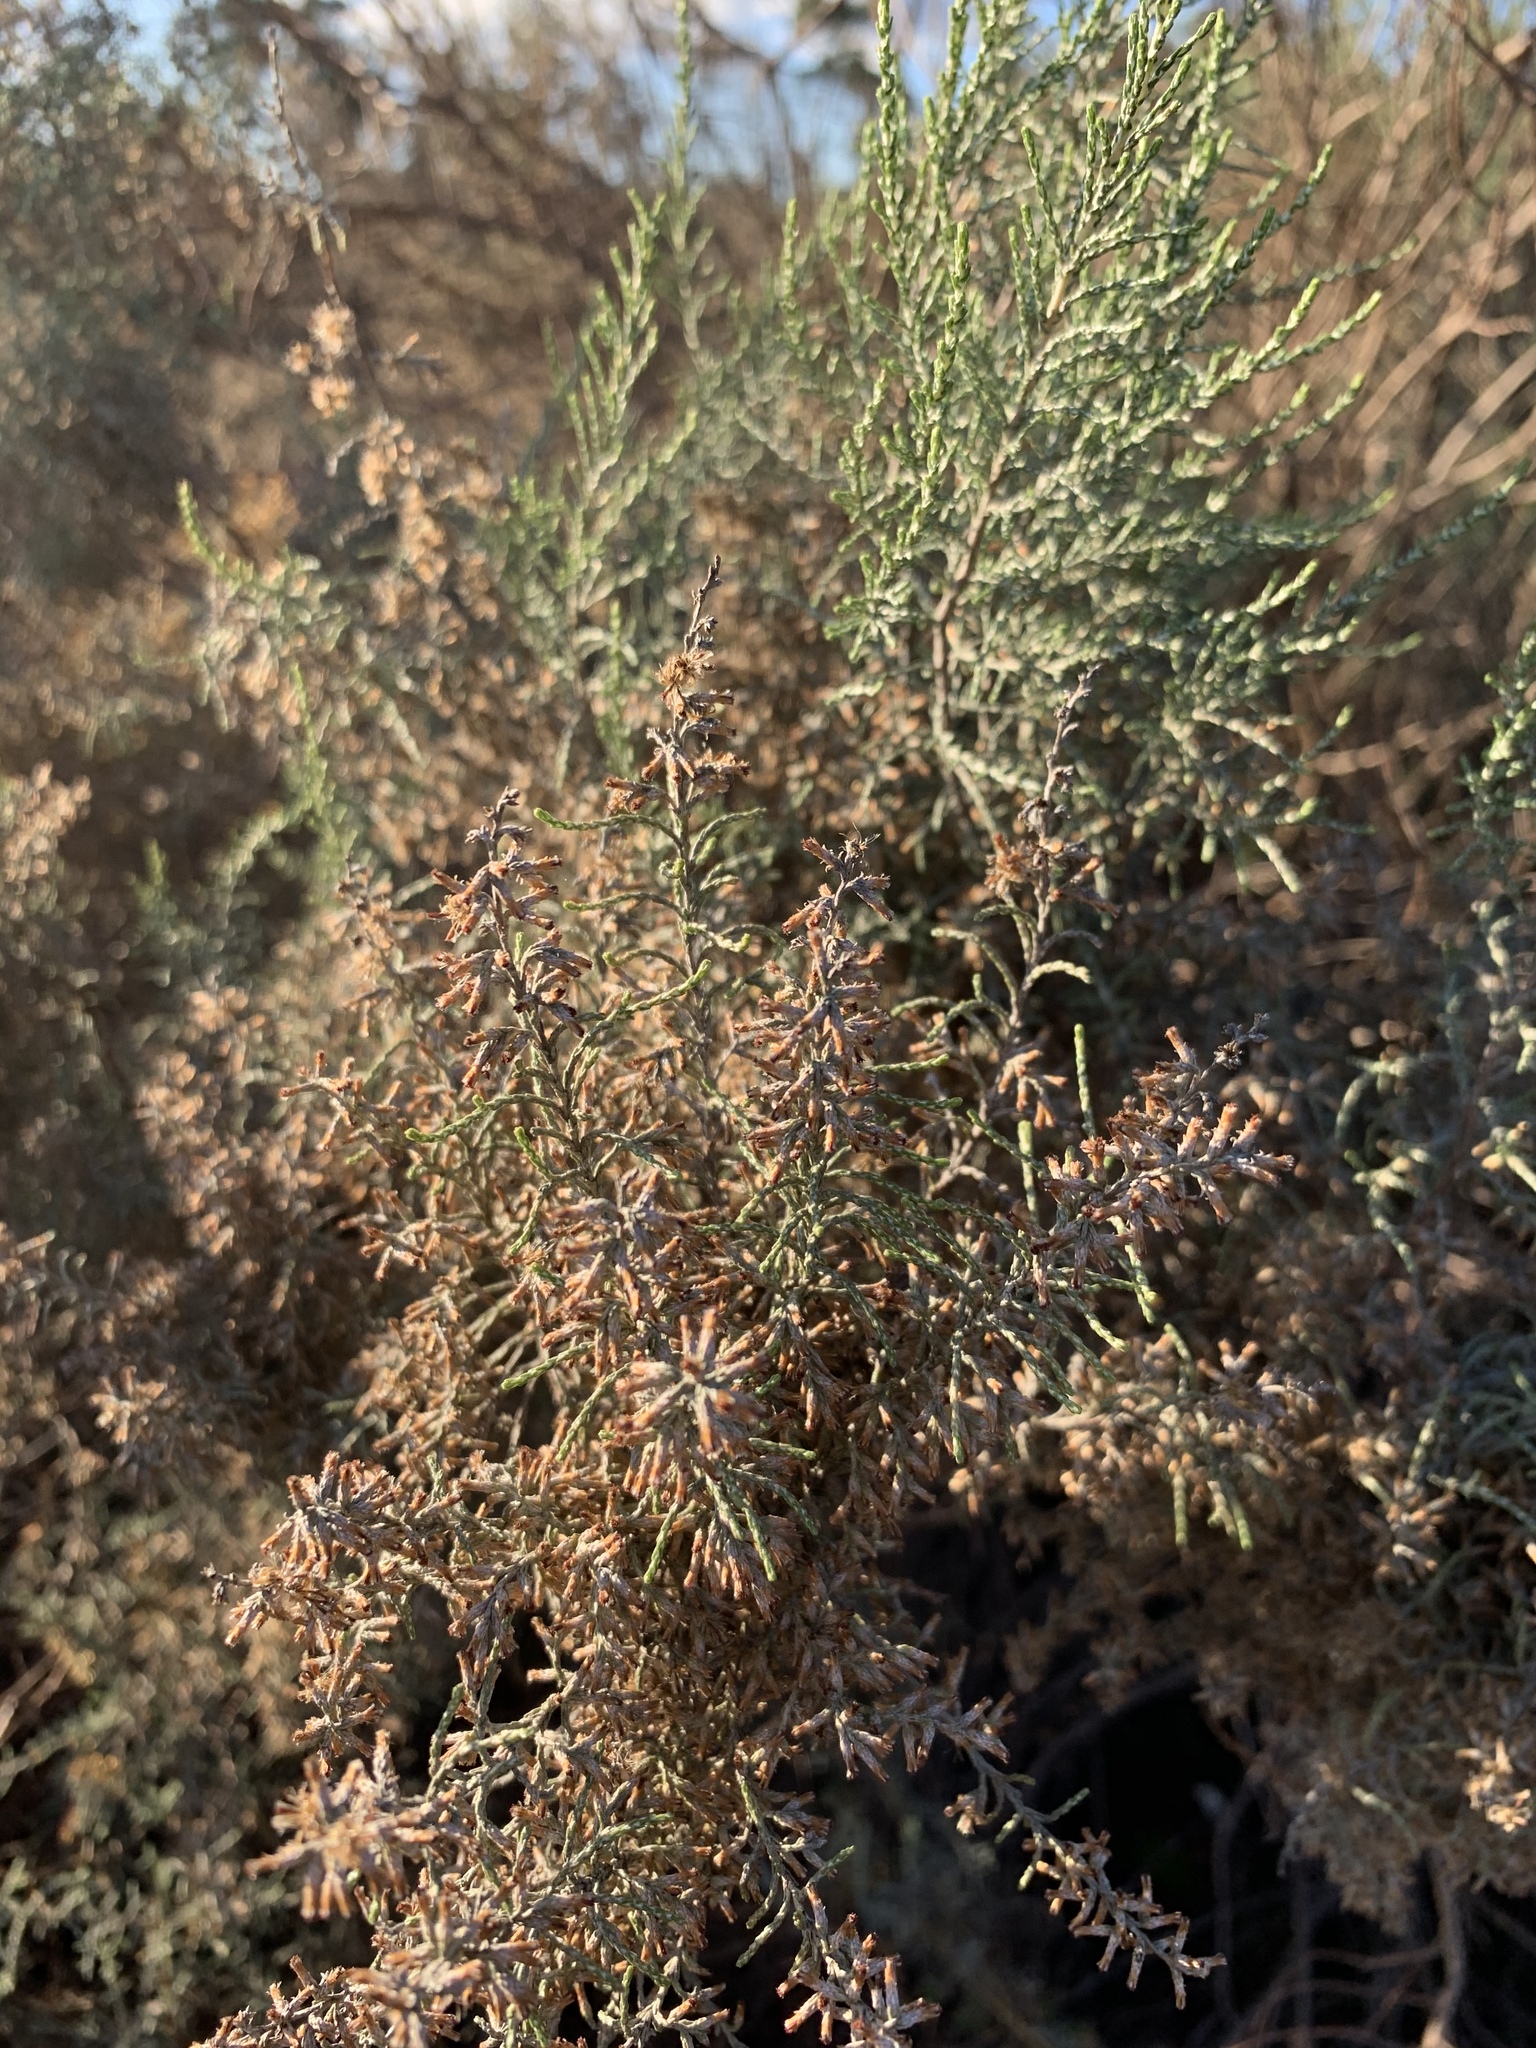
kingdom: Plantae
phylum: Tracheophyta
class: Magnoliopsida
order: Asterales
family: Asteraceae
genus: Dicerothamnus
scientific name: Dicerothamnus rhinocerotis
